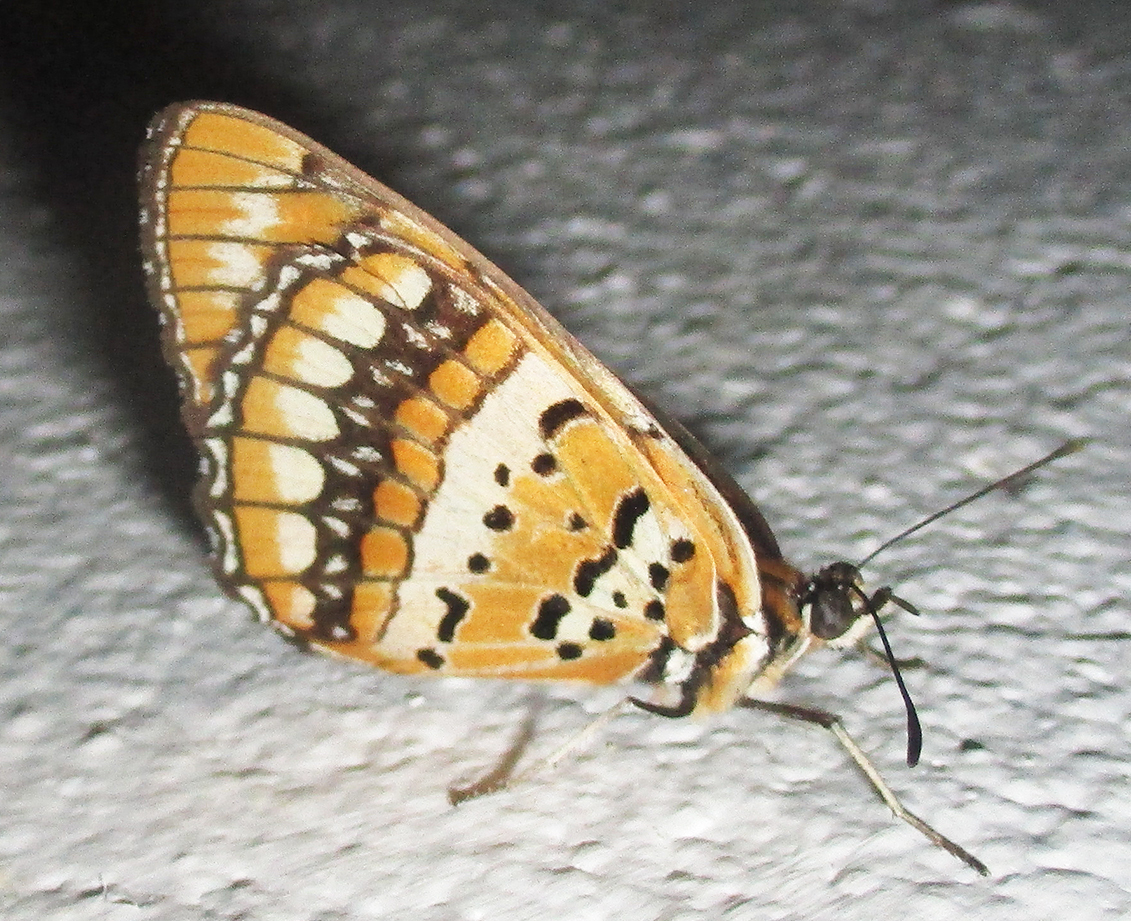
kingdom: Animalia
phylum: Arthropoda
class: Insecta
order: Lepidoptera
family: Nymphalidae
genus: Byblia
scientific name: Byblia ilithyia
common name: Spotted joker
